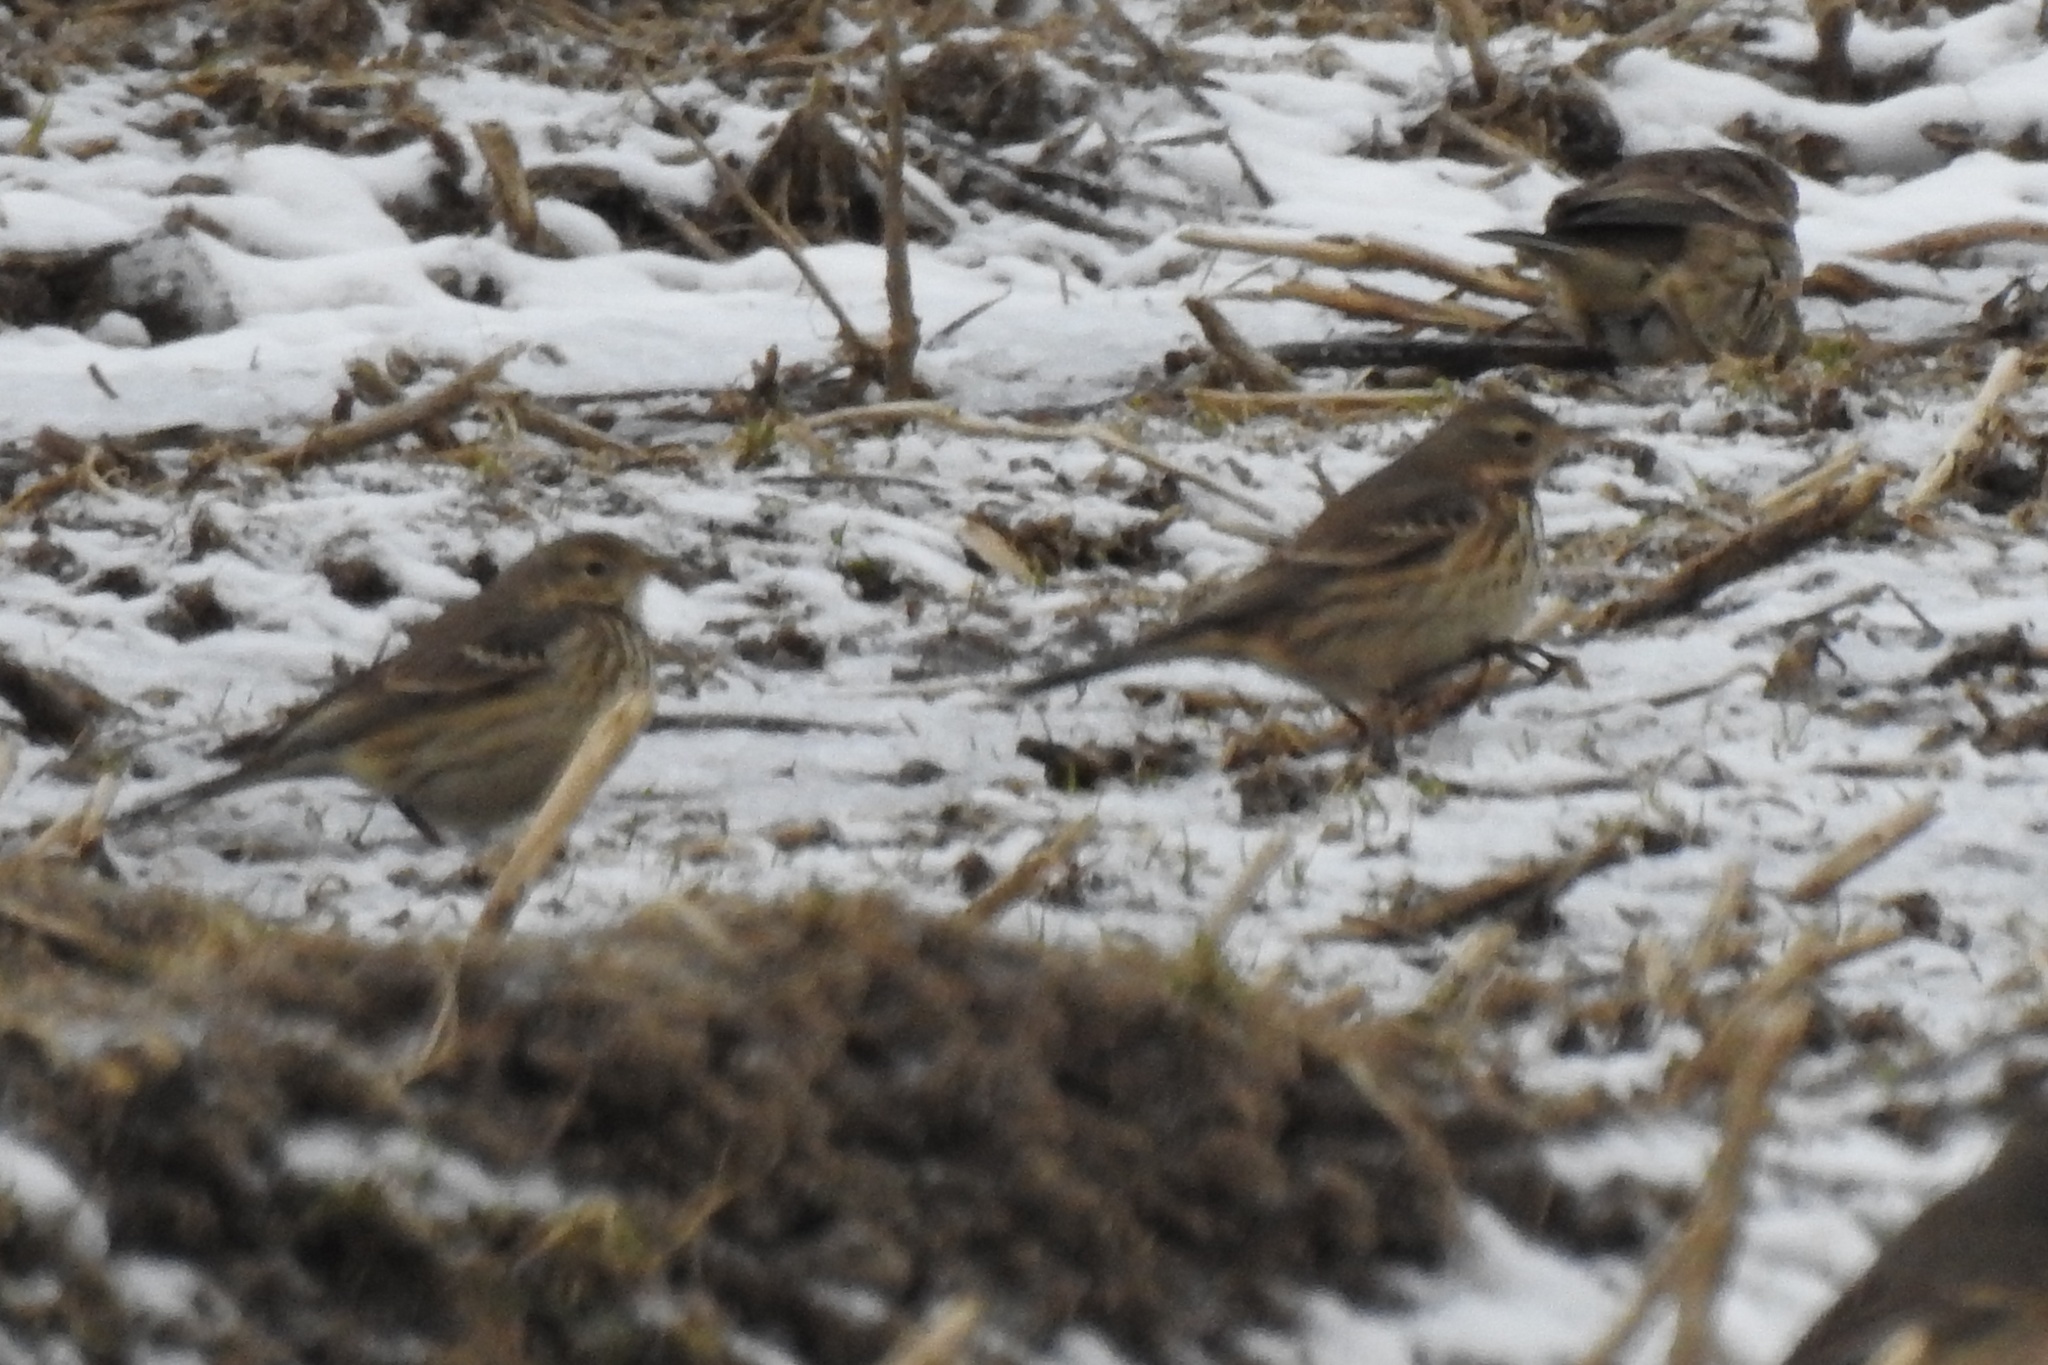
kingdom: Animalia
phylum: Chordata
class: Aves
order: Passeriformes
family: Motacillidae
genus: Anthus
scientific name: Anthus rubescens
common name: Buff-bellied pipit
